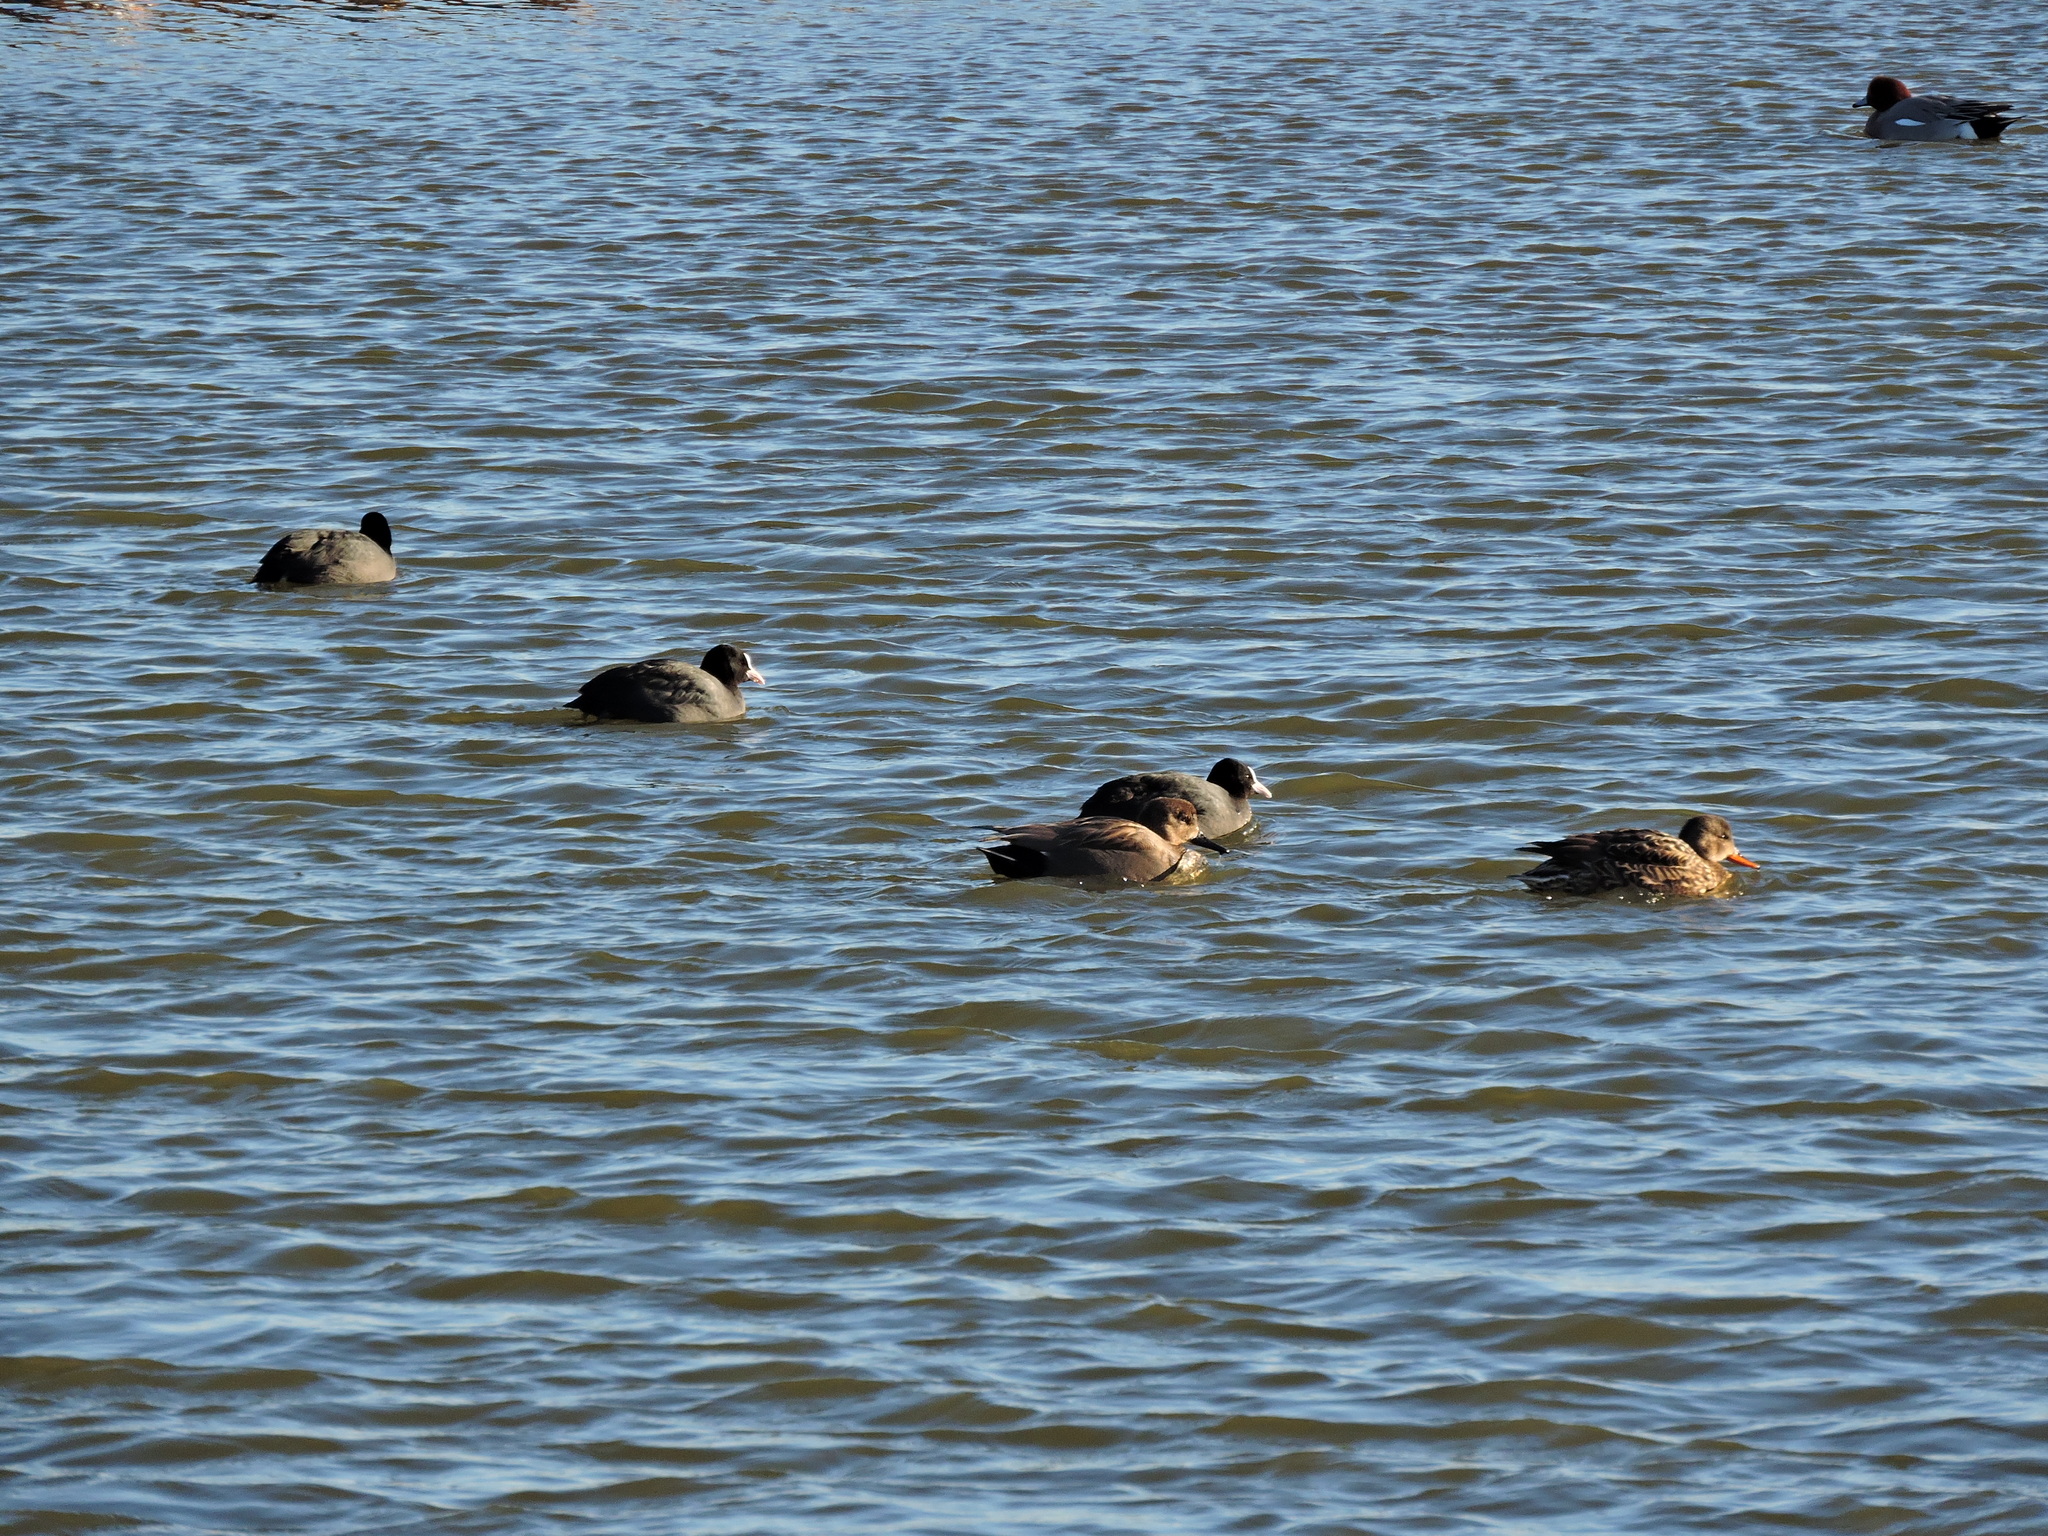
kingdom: Animalia
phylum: Chordata
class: Aves
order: Gruiformes
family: Rallidae
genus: Fulica
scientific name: Fulica atra
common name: Eurasian coot
